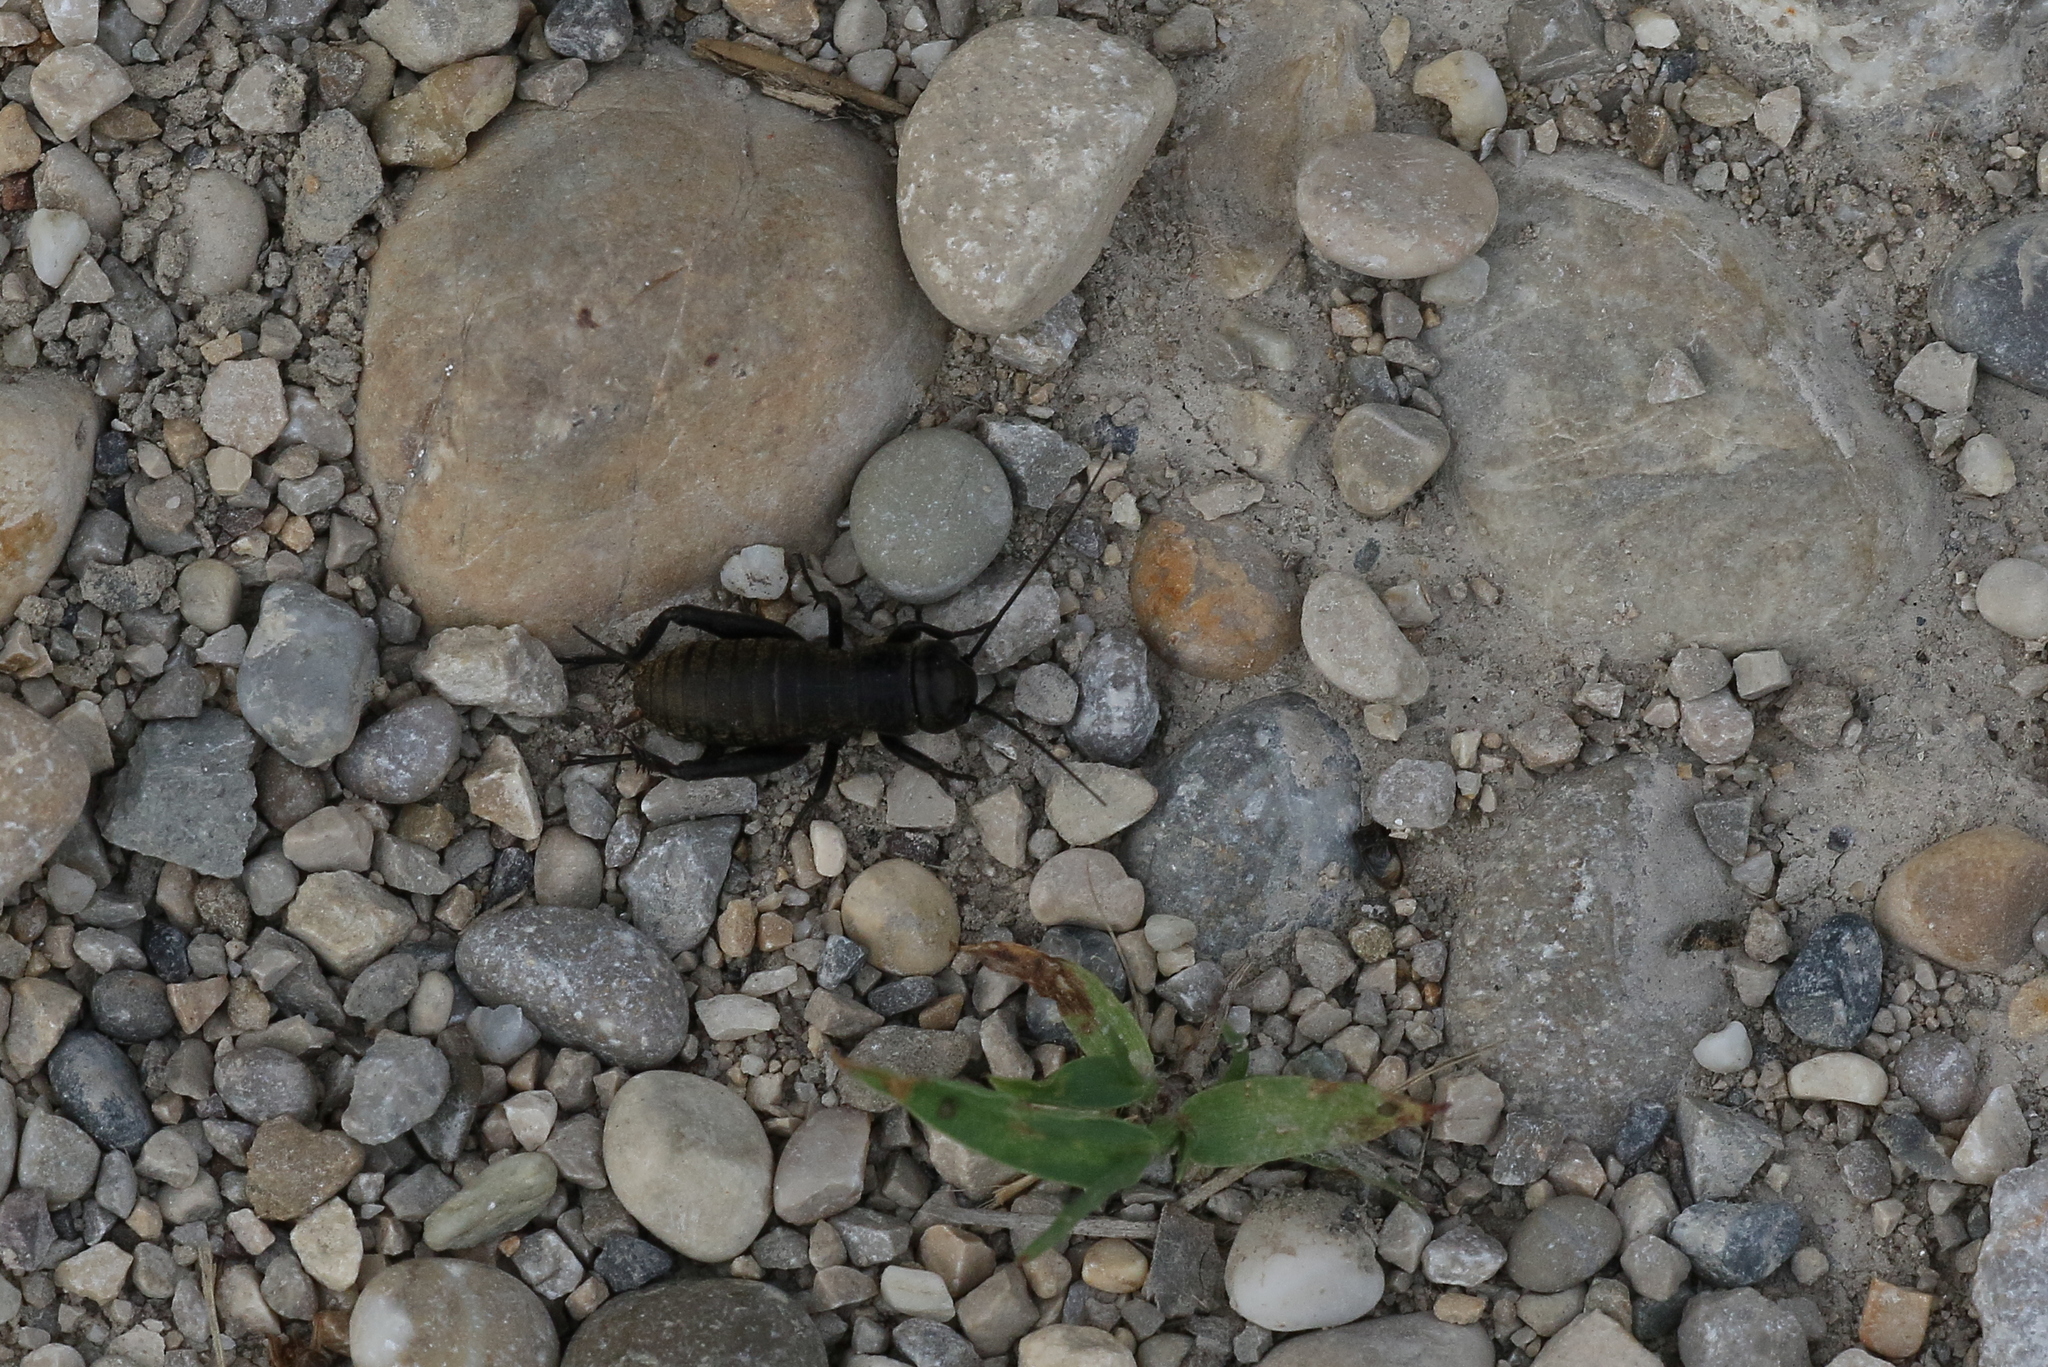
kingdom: Animalia
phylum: Arthropoda
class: Insecta
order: Orthoptera
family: Gryllidae
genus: Gryllus
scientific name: Gryllus campestris
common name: Field cricket
